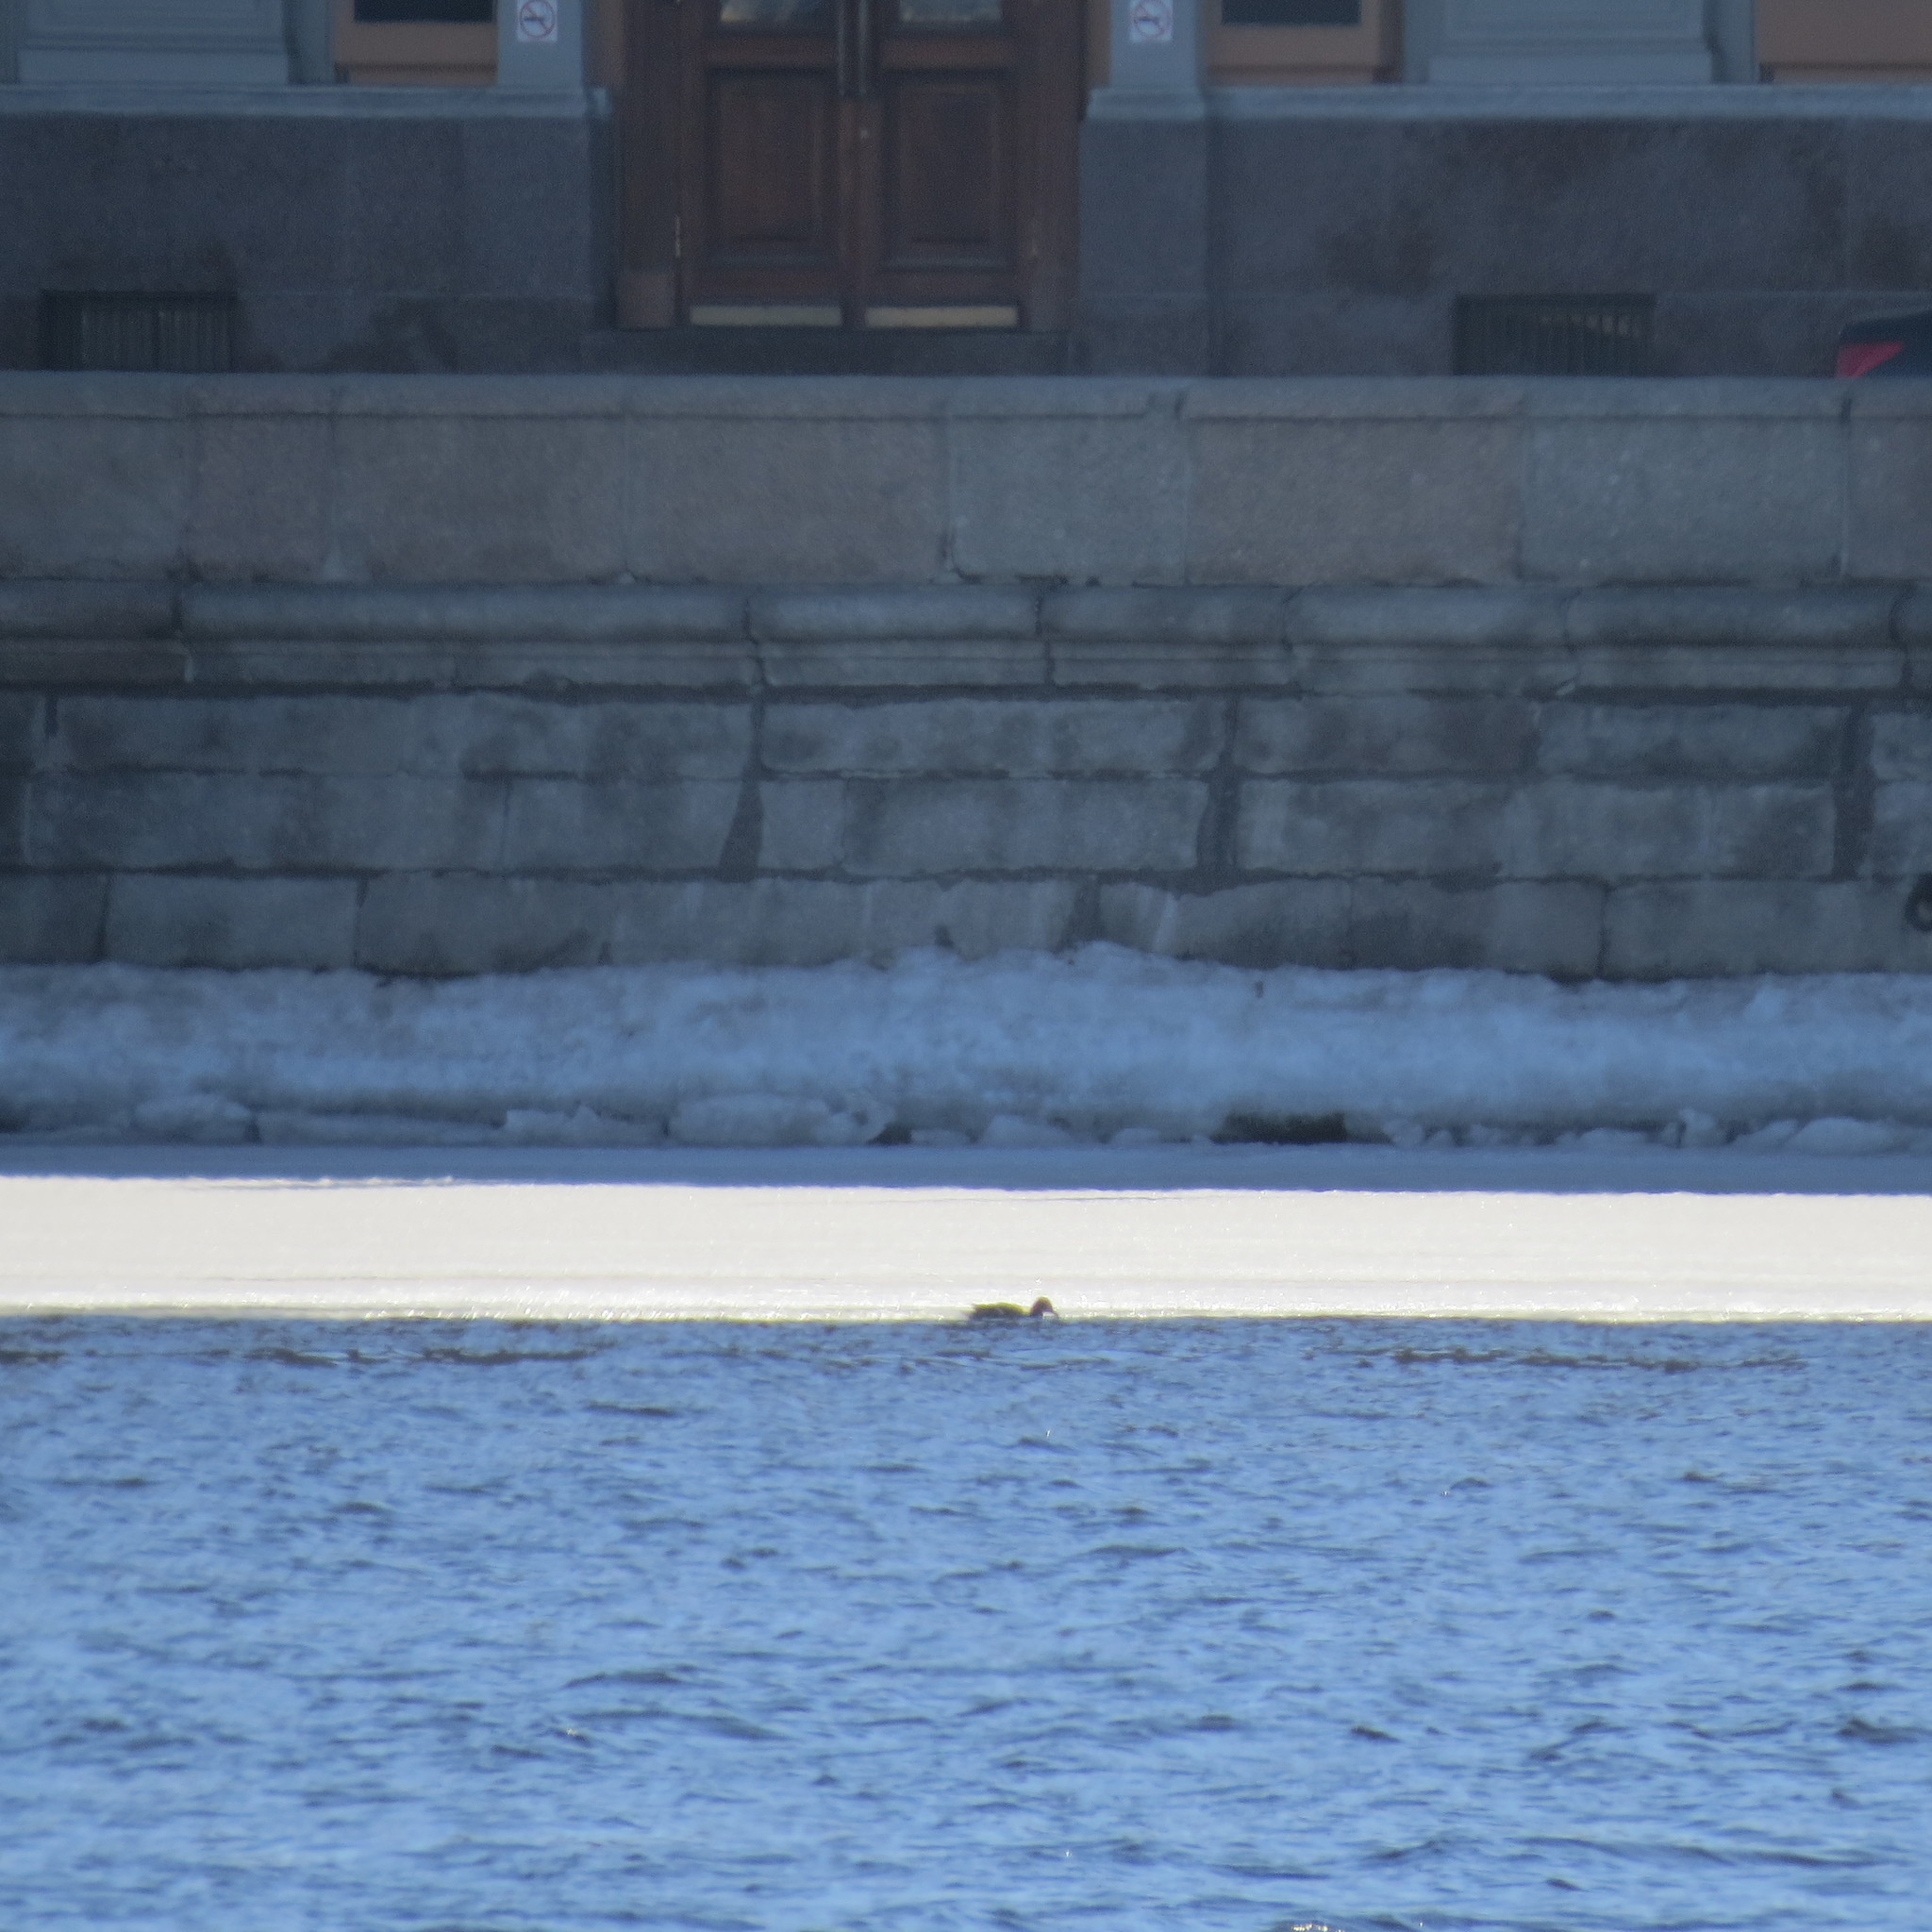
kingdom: Animalia
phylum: Chordata
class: Aves
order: Anseriformes
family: Anatidae
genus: Anas
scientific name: Anas platyrhynchos
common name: Mallard
